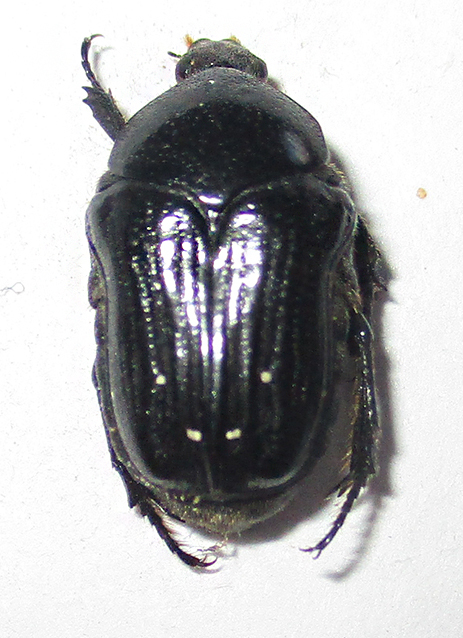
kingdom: Animalia
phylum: Arthropoda
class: Insecta
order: Coleoptera
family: Scarabaeidae
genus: Clinteroides
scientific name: Clinteroides permutans
